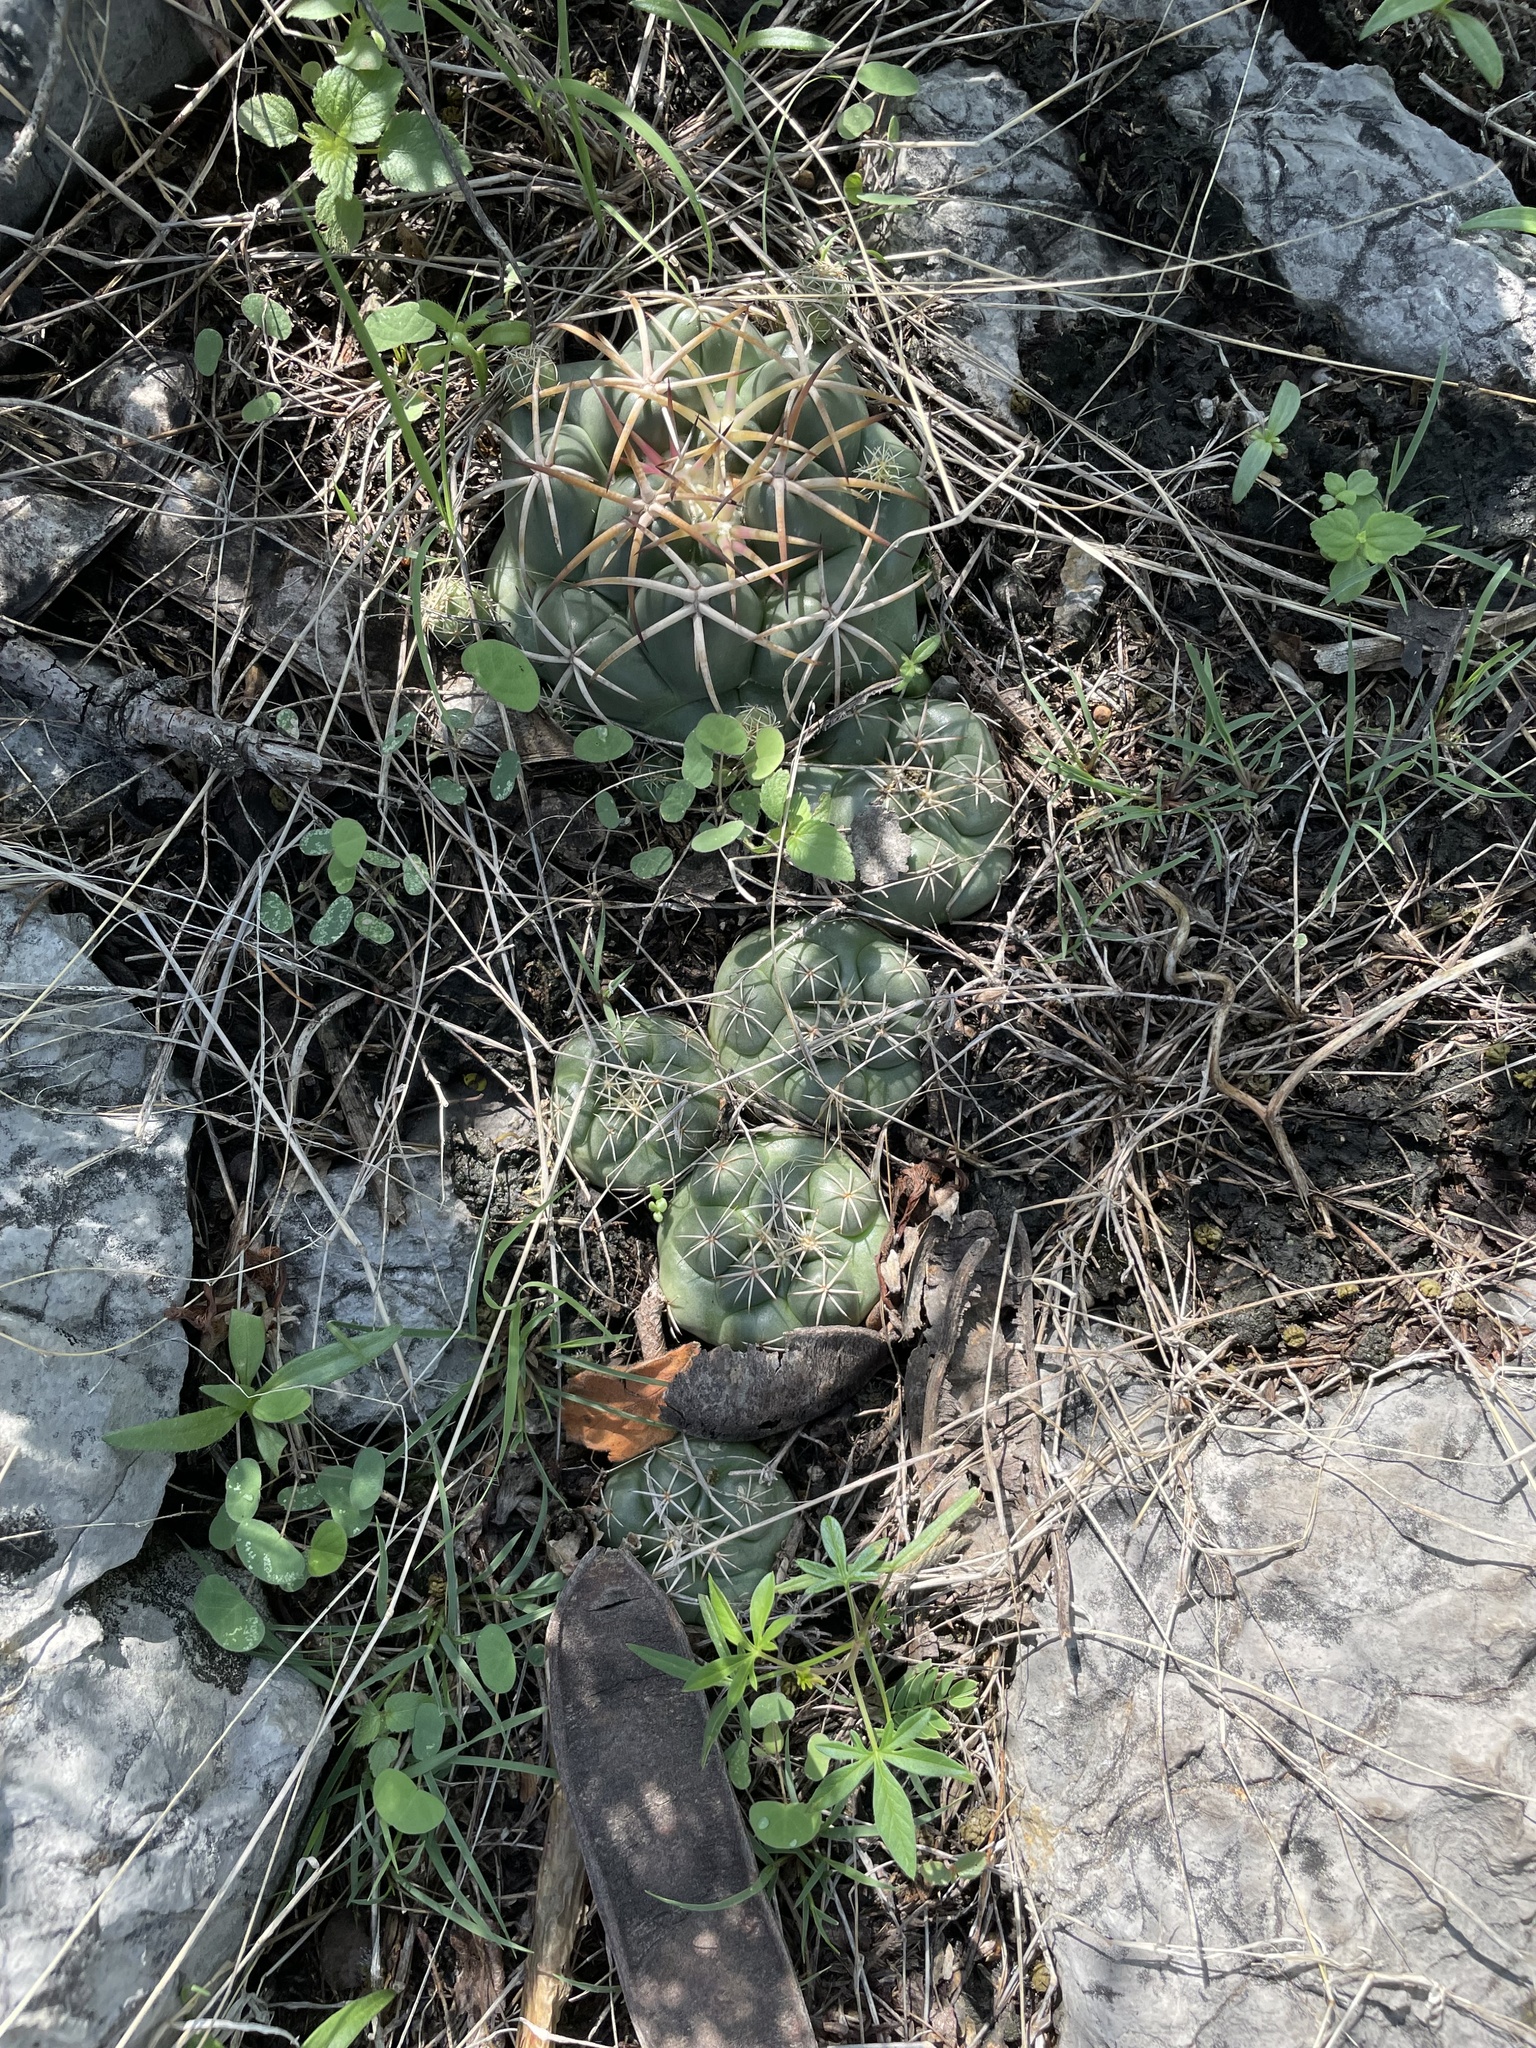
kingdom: Plantae
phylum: Tracheophyta
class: Magnoliopsida
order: Caryophyllales
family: Cactaceae
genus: Coryphantha
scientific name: Coryphantha elephantidens
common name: Elephant's tooth
